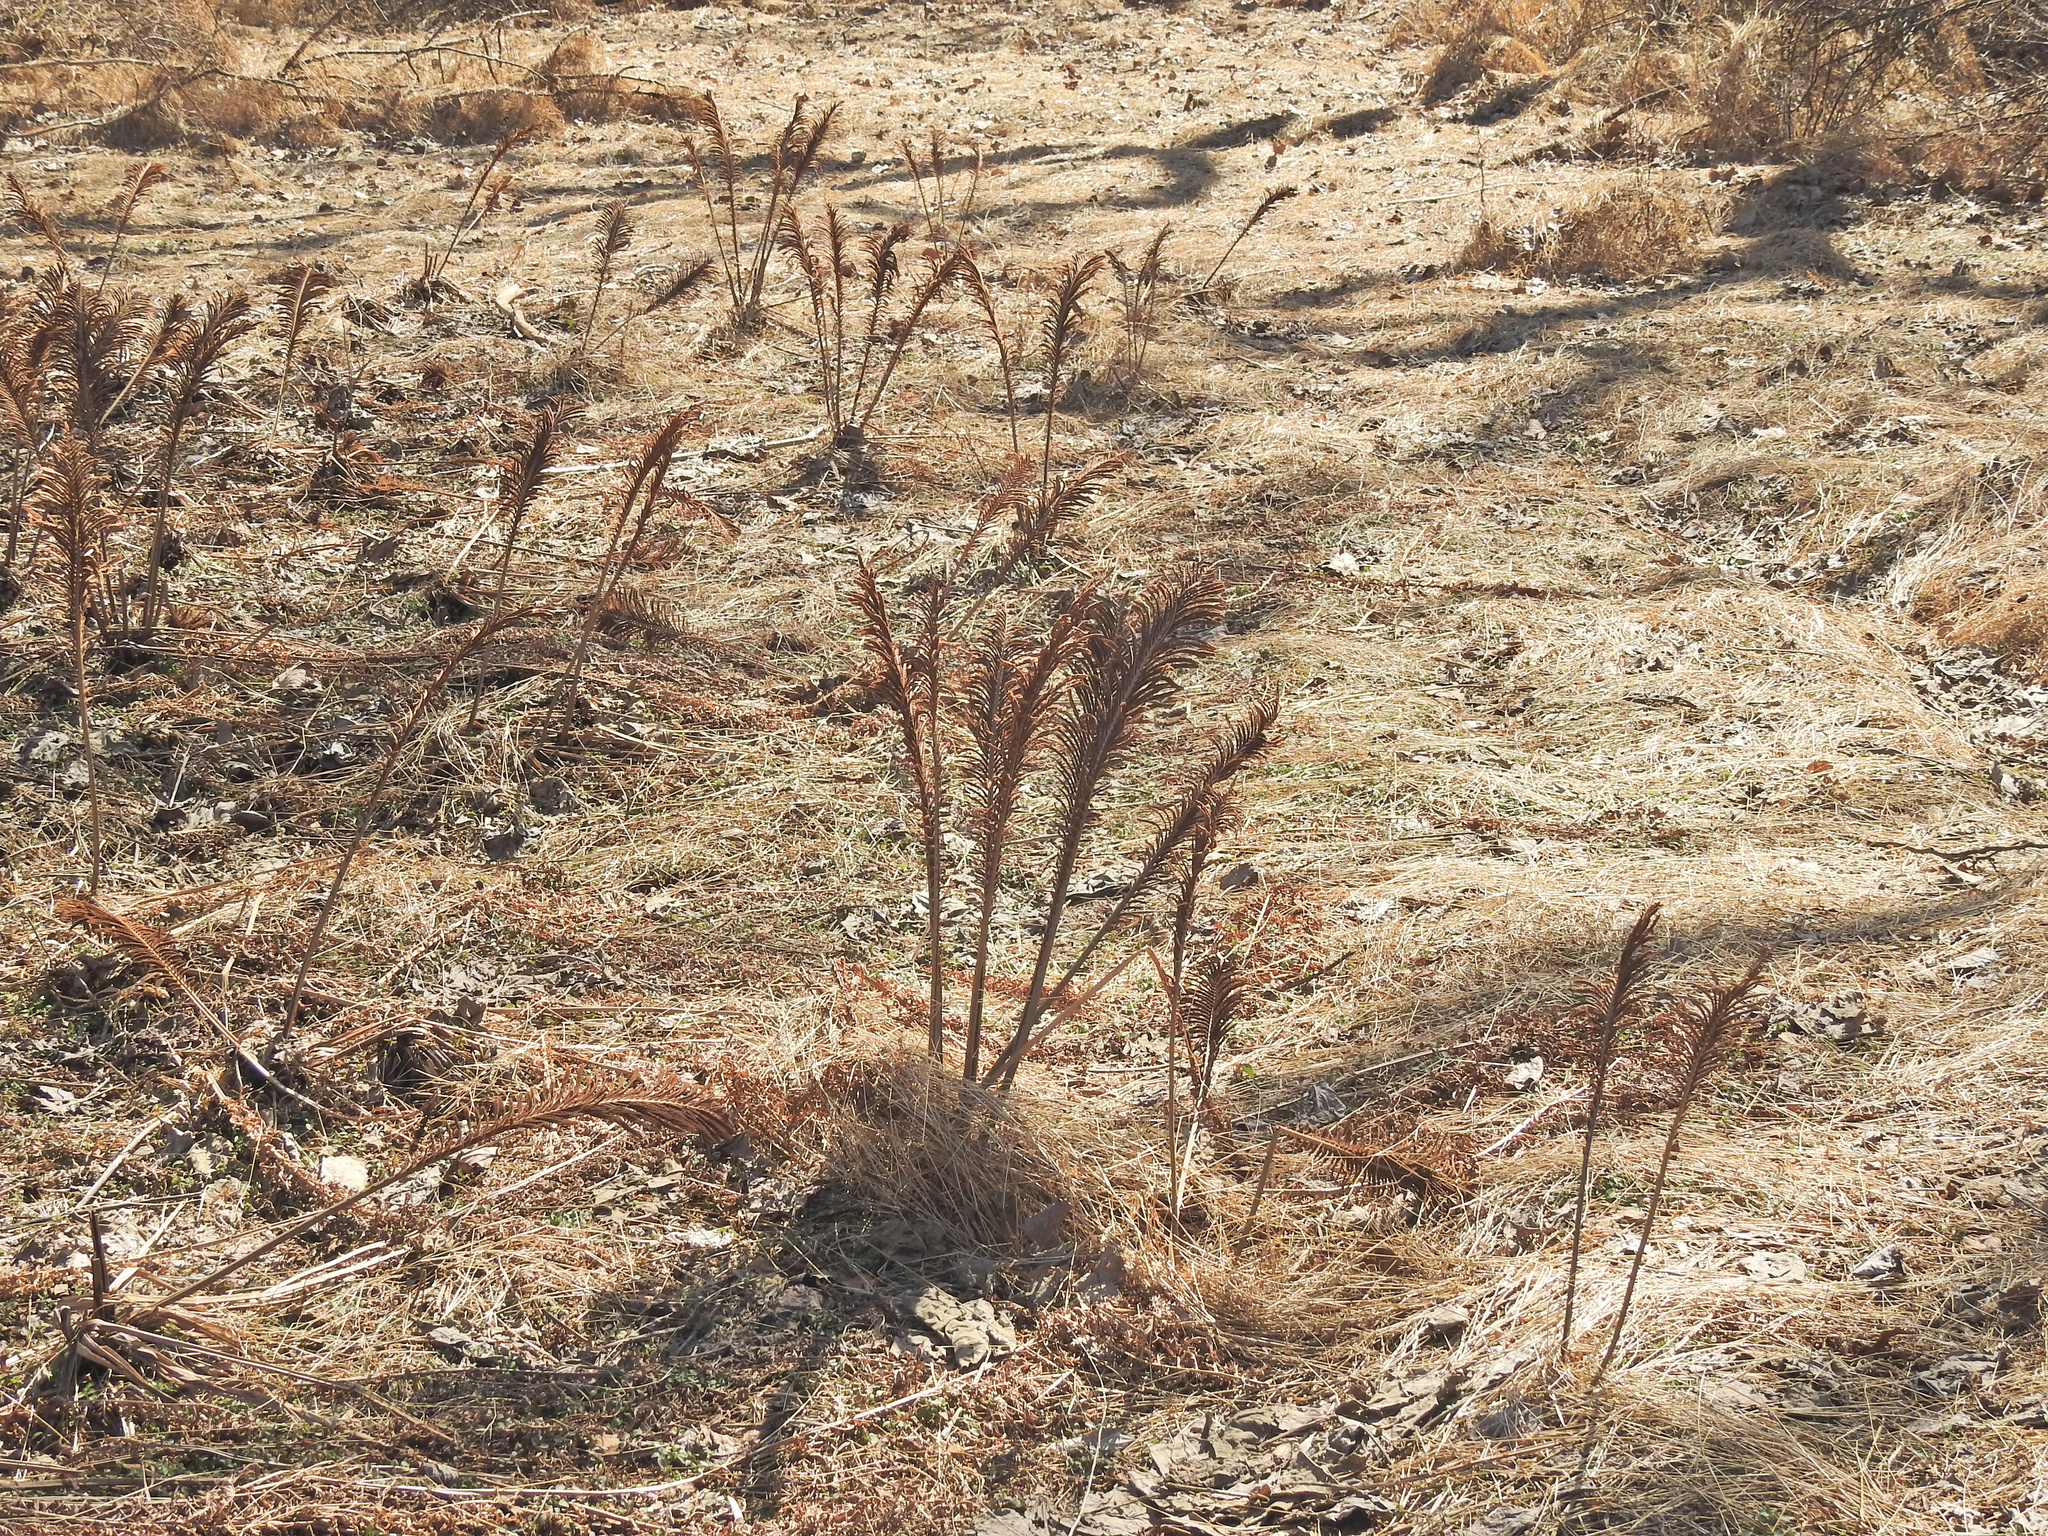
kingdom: Plantae
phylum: Tracheophyta
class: Polypodiopsida
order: Polypodiales
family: Onocleaceae
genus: Matteuccia
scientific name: Matteuccia struthiopteris
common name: Ostrich fern
